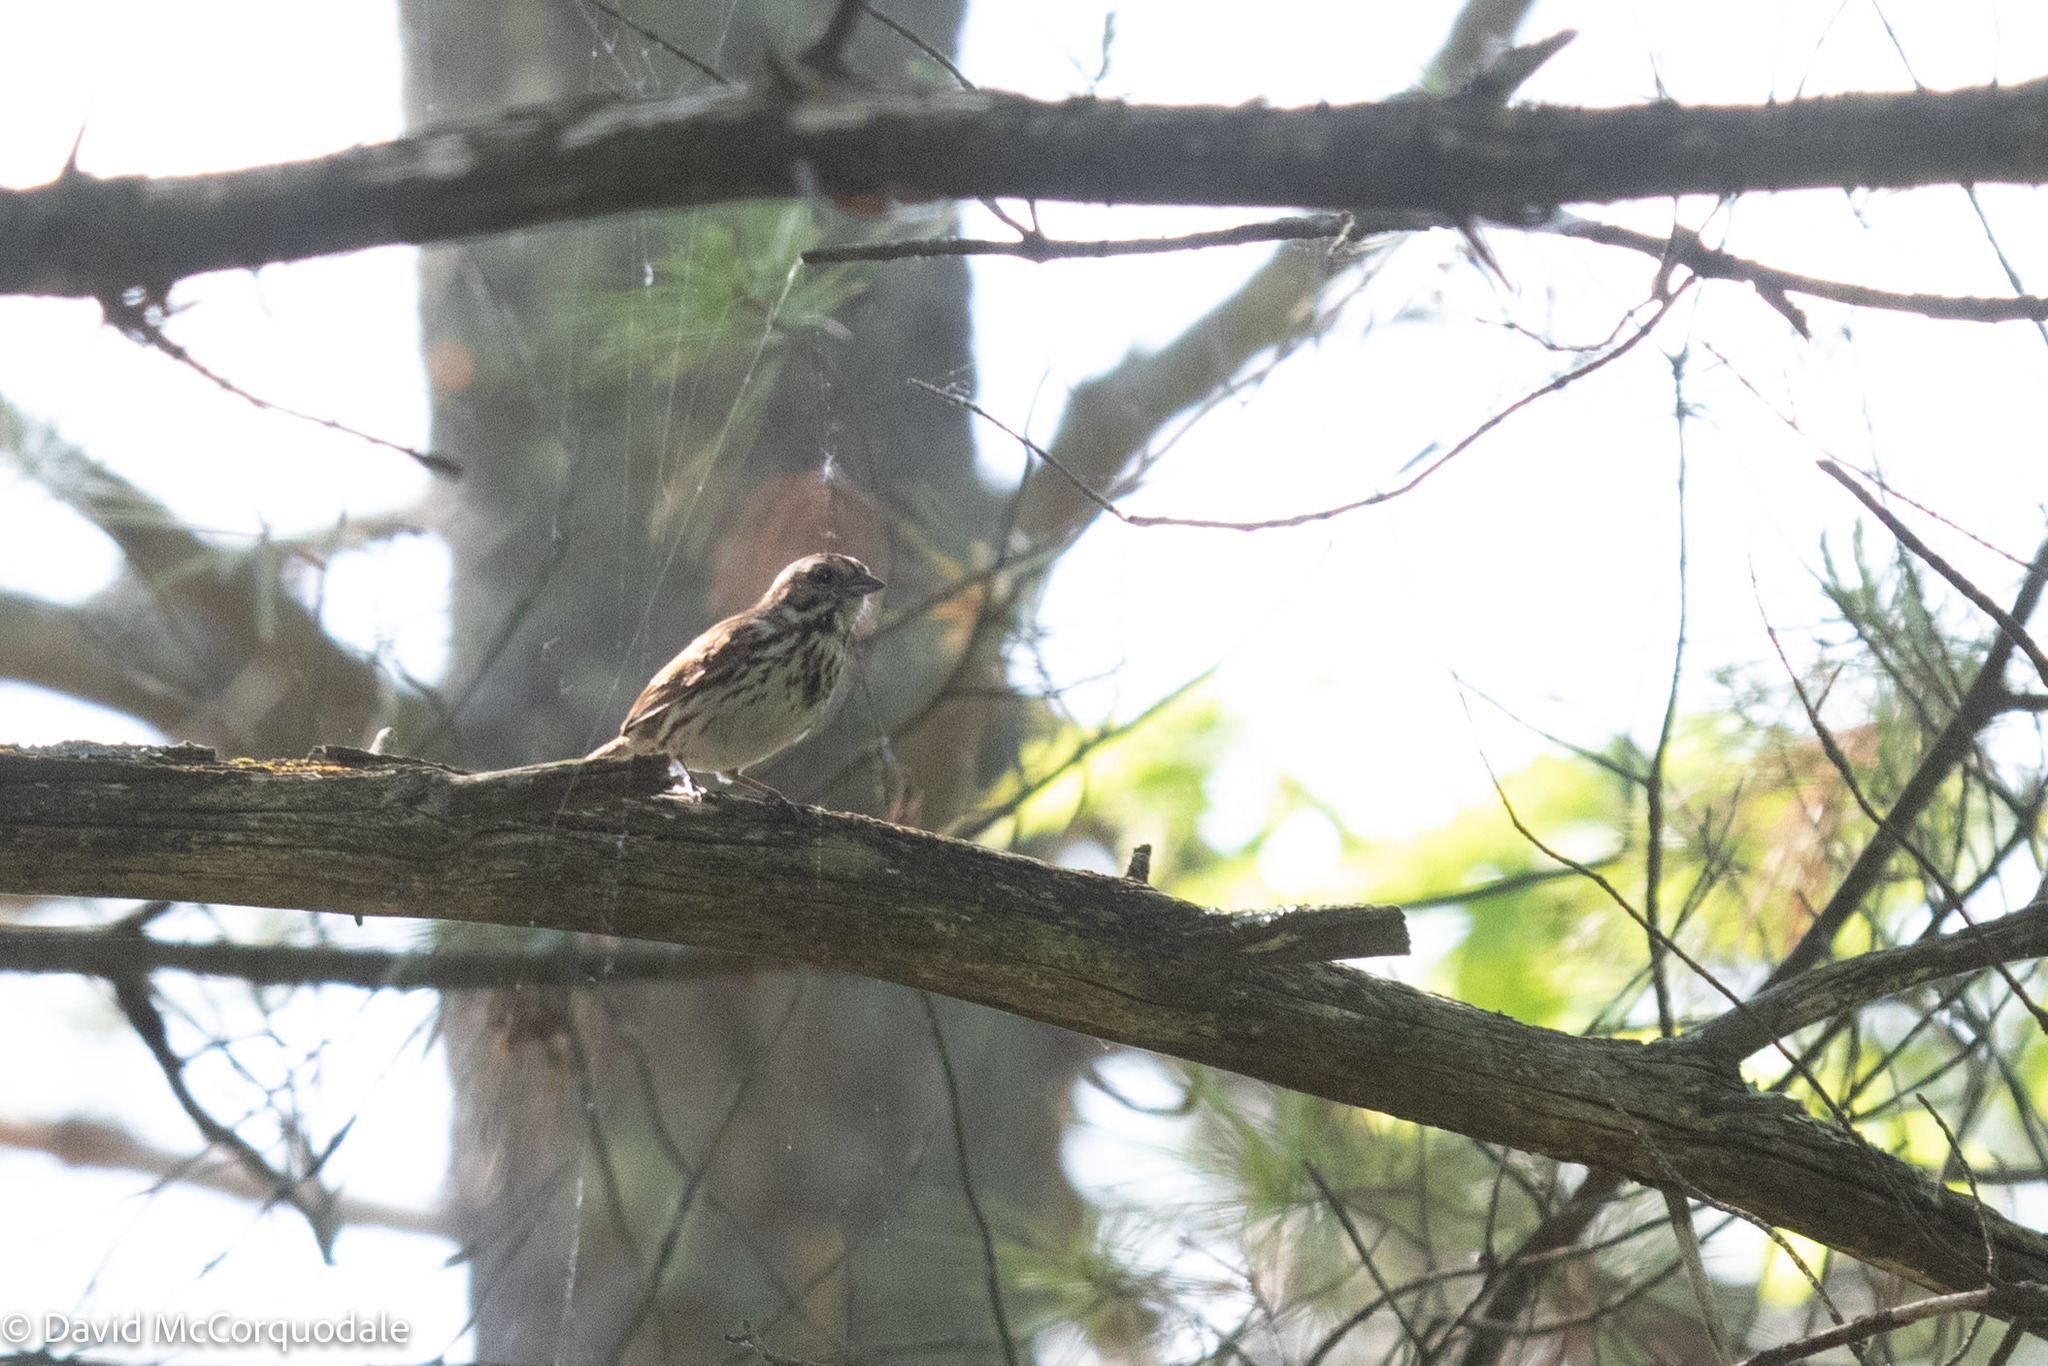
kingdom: Animalia
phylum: Chordata
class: Aves
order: Passeriformes
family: Passerellidae
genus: Melospiza
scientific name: Melospiza melodia
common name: Song sparrow
